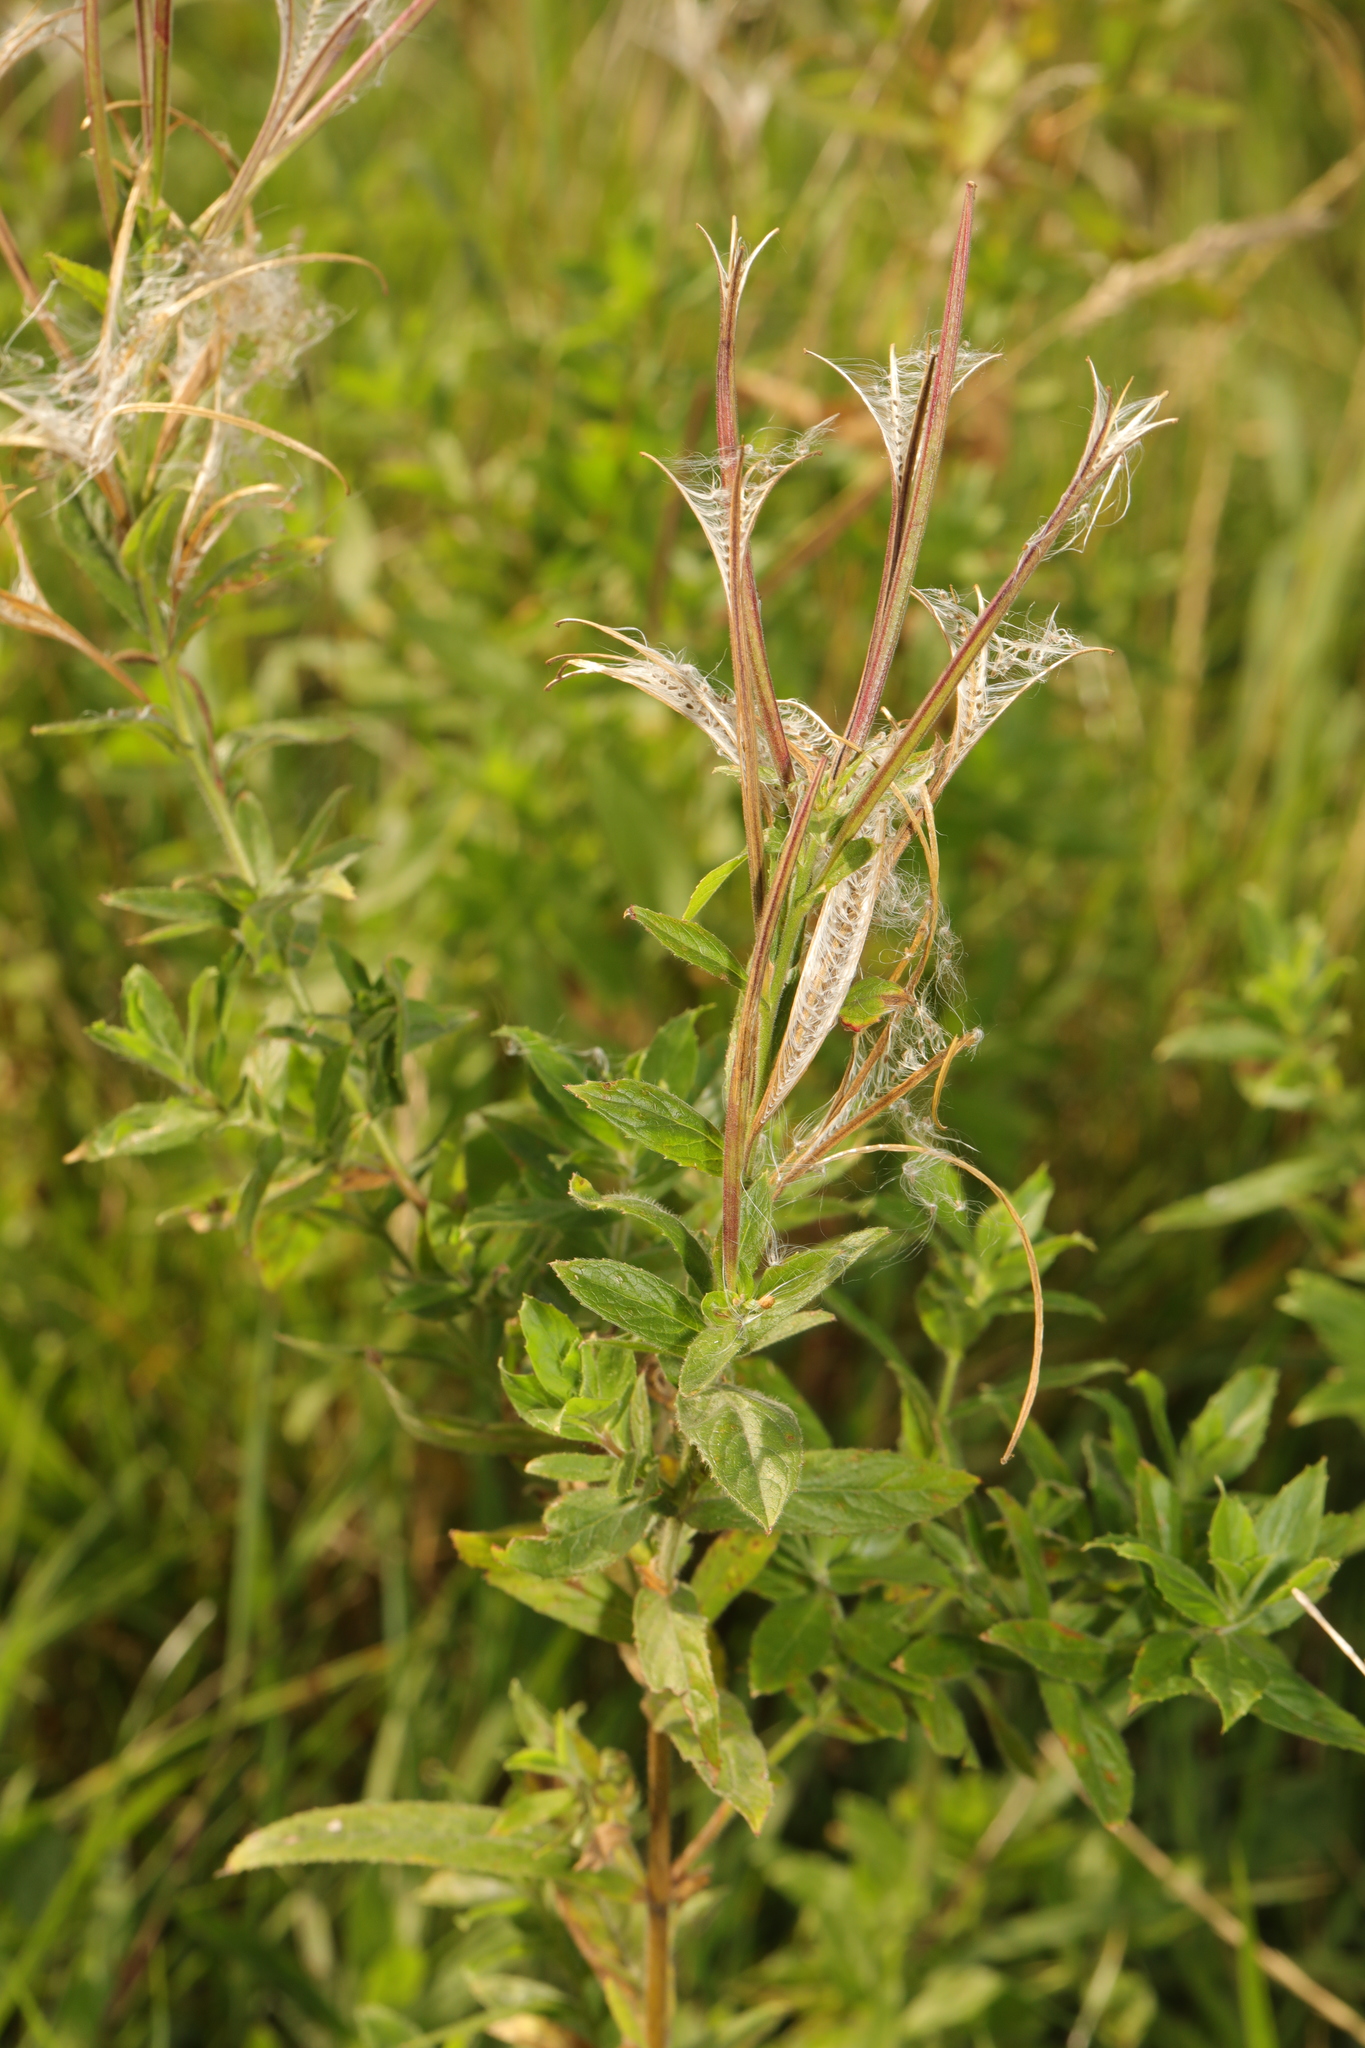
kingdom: Plantae
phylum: Tracheophyta
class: Magnoliopsida
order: Myrtales
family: Onagraceae
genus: Epilobium
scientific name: Epilobium hirsutum
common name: Great willowherb
